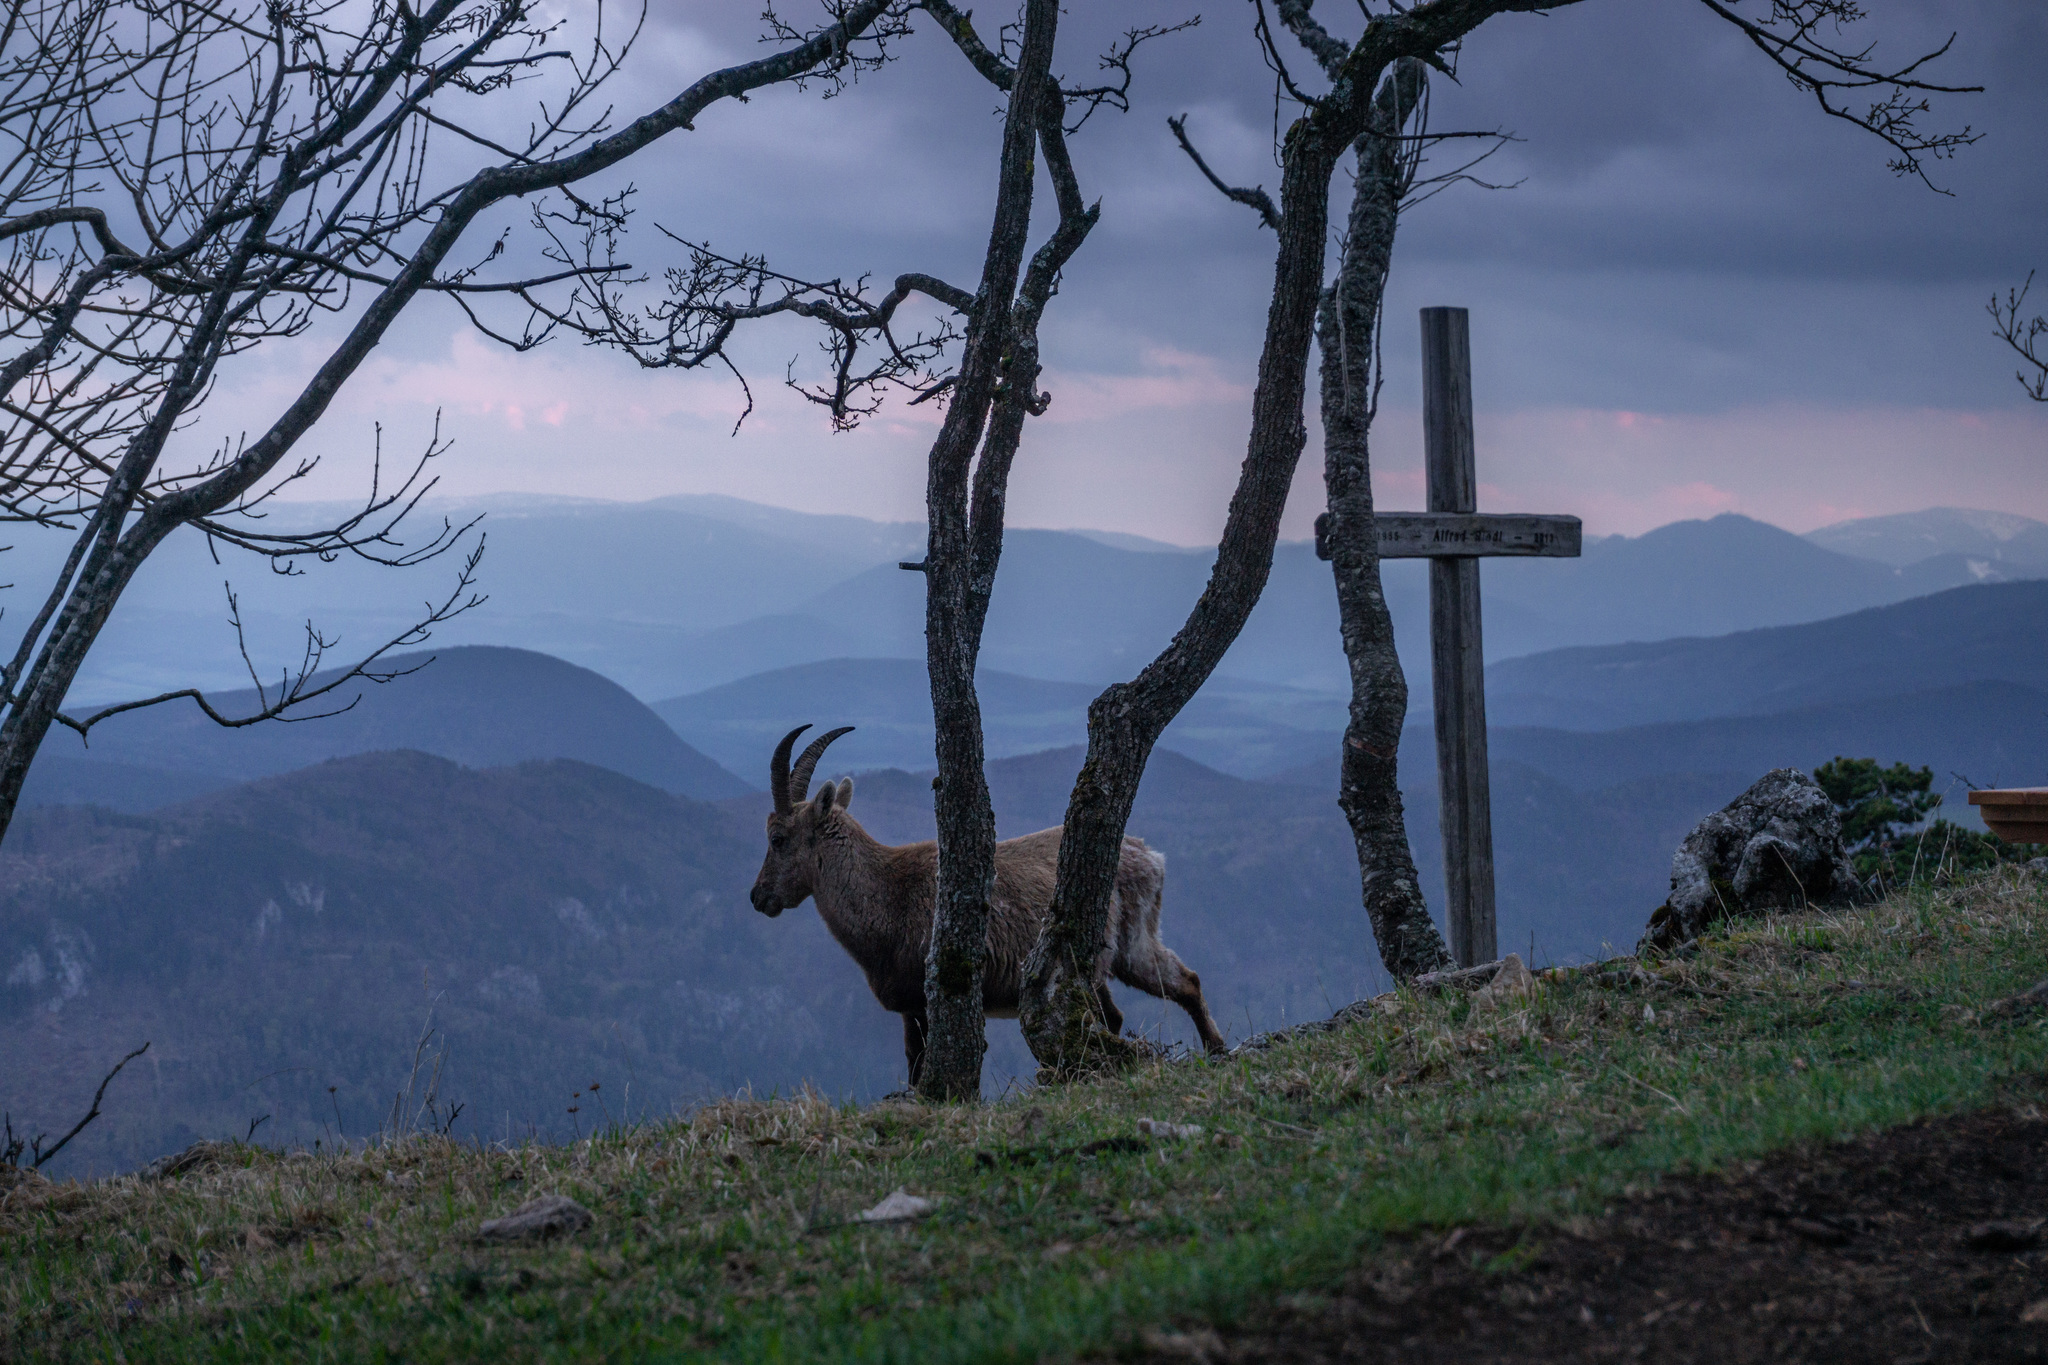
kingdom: Animalia
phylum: Chordata
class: Mammalia
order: Artiodactyla
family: Bovidae
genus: Capra
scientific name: Capra ibex
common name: Alpine ibex
